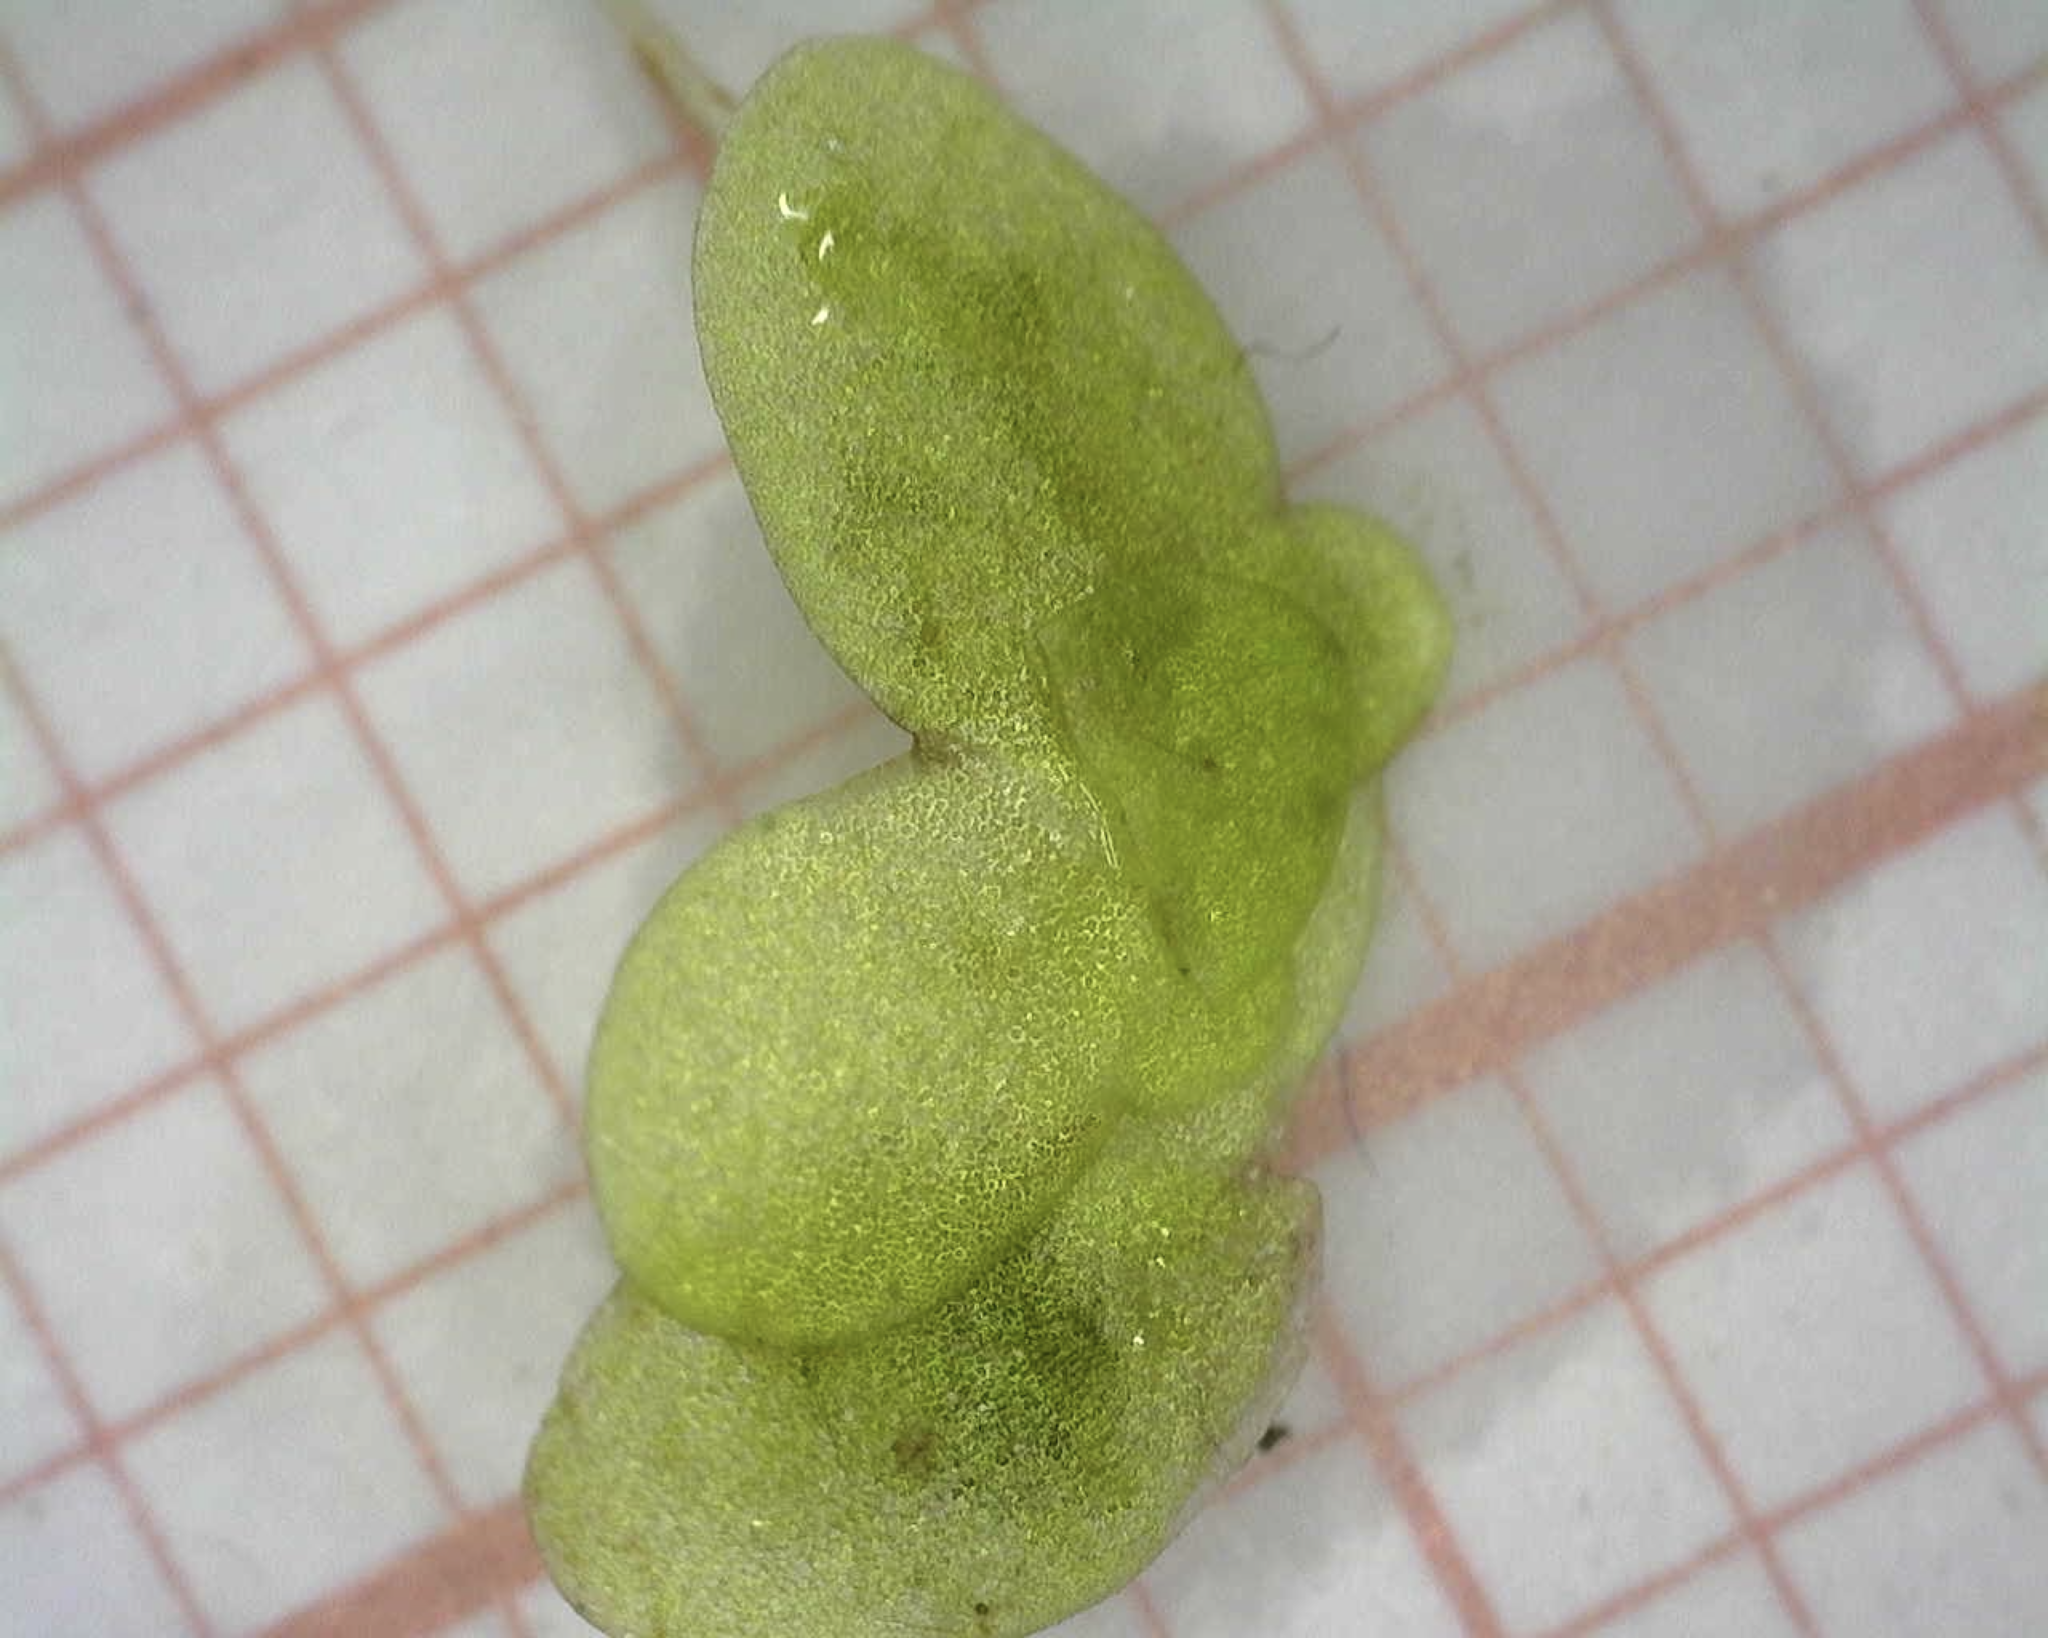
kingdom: Plantae
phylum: Tracheophyta
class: Liliopsida
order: Alismatales
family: Araceae
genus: Lemna
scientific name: Lemna minor
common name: Common duckweed
